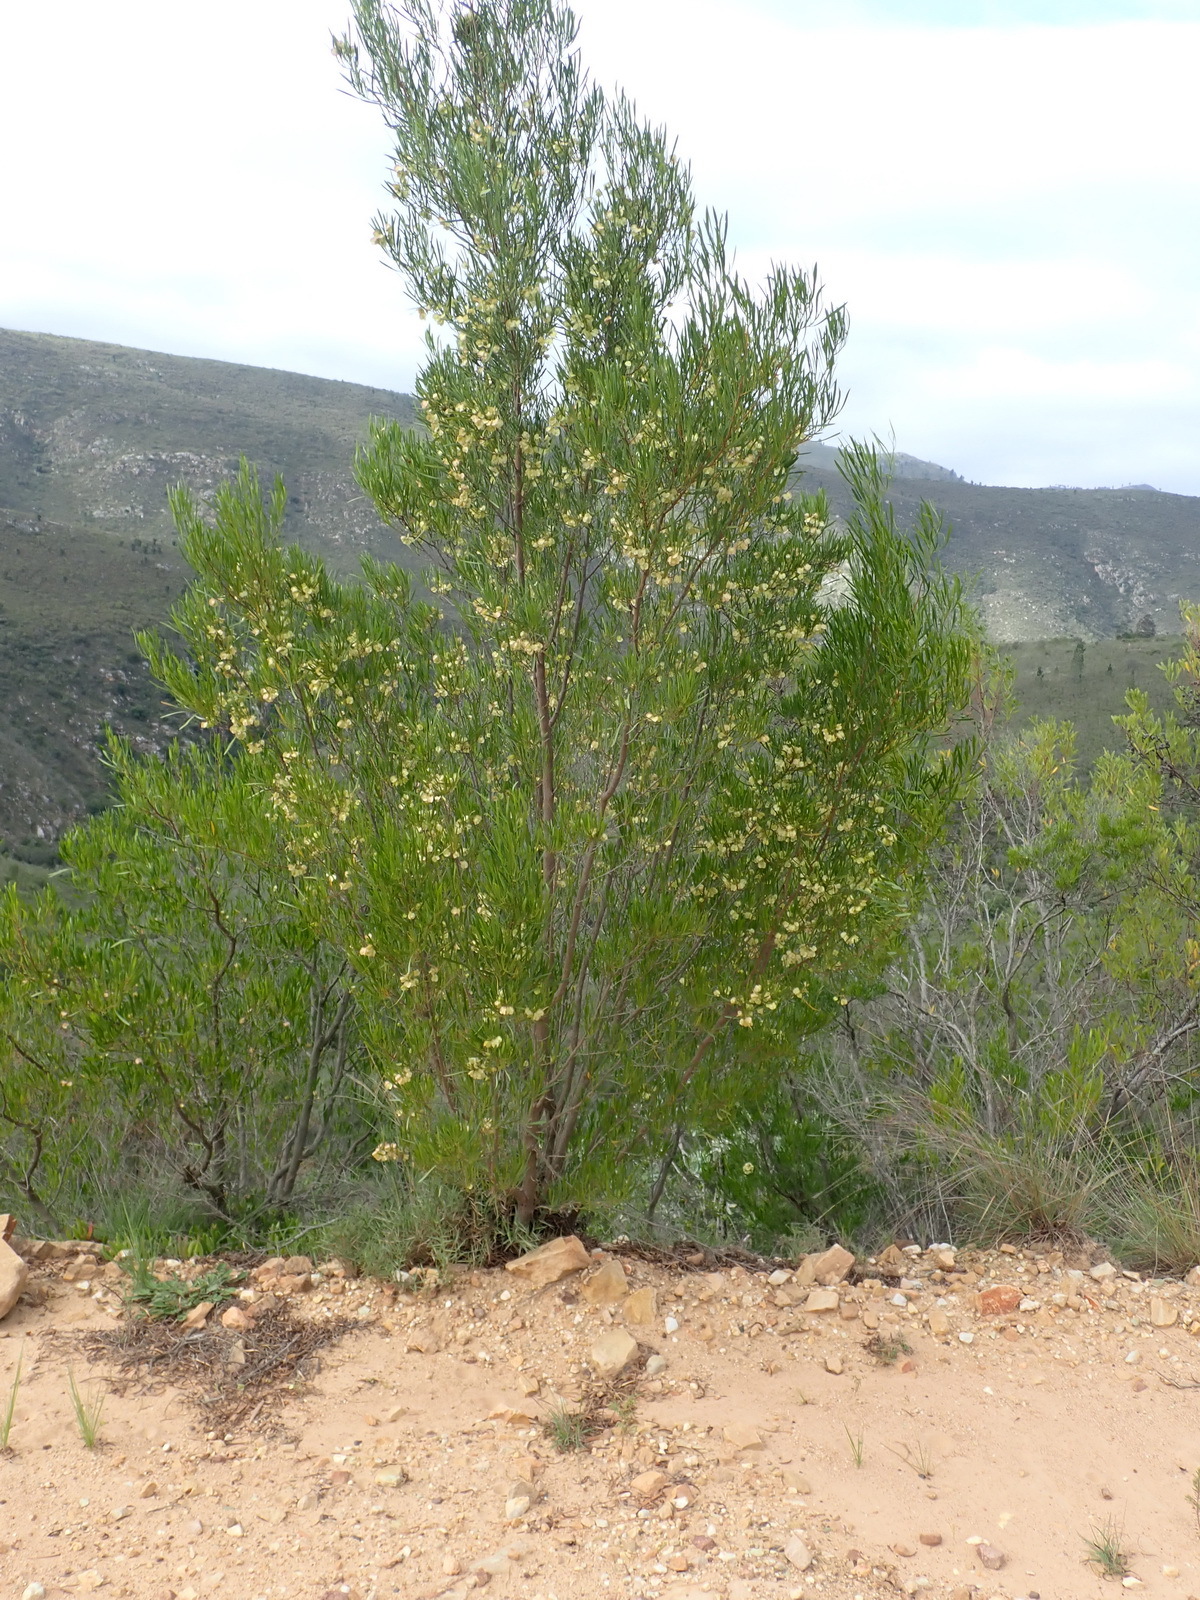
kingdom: Plantae
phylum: Tracheophyta
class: Magnoliopsida
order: Sapindales
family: Sapindaceae
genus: Dodonaea
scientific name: Dodonaea viscosa
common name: Hopbush
